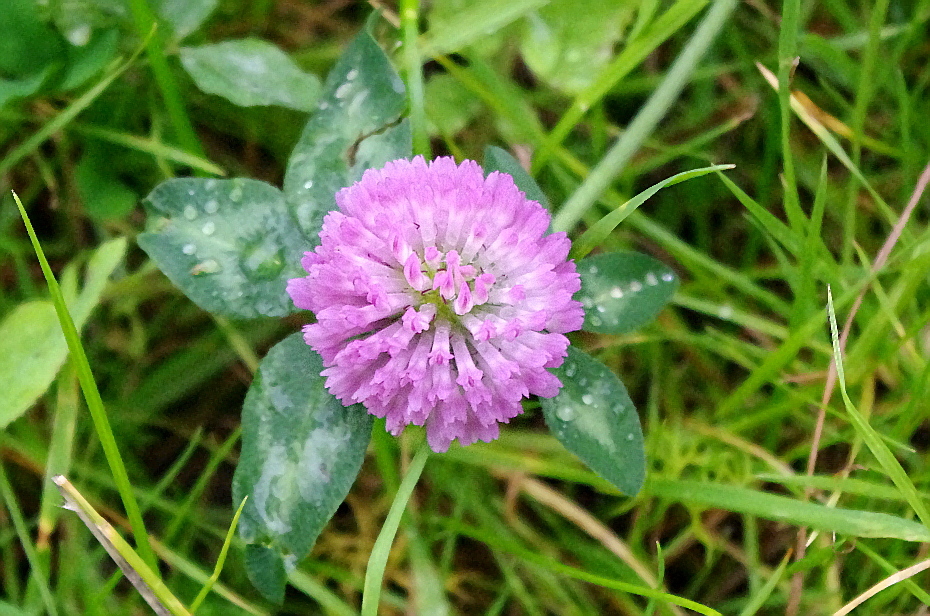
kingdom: Plantae
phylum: Tracheophyta
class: Magnoliopsida
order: Fabales
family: Fabaceae
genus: Trifolium
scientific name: Trifolium pratense
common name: Red clover
